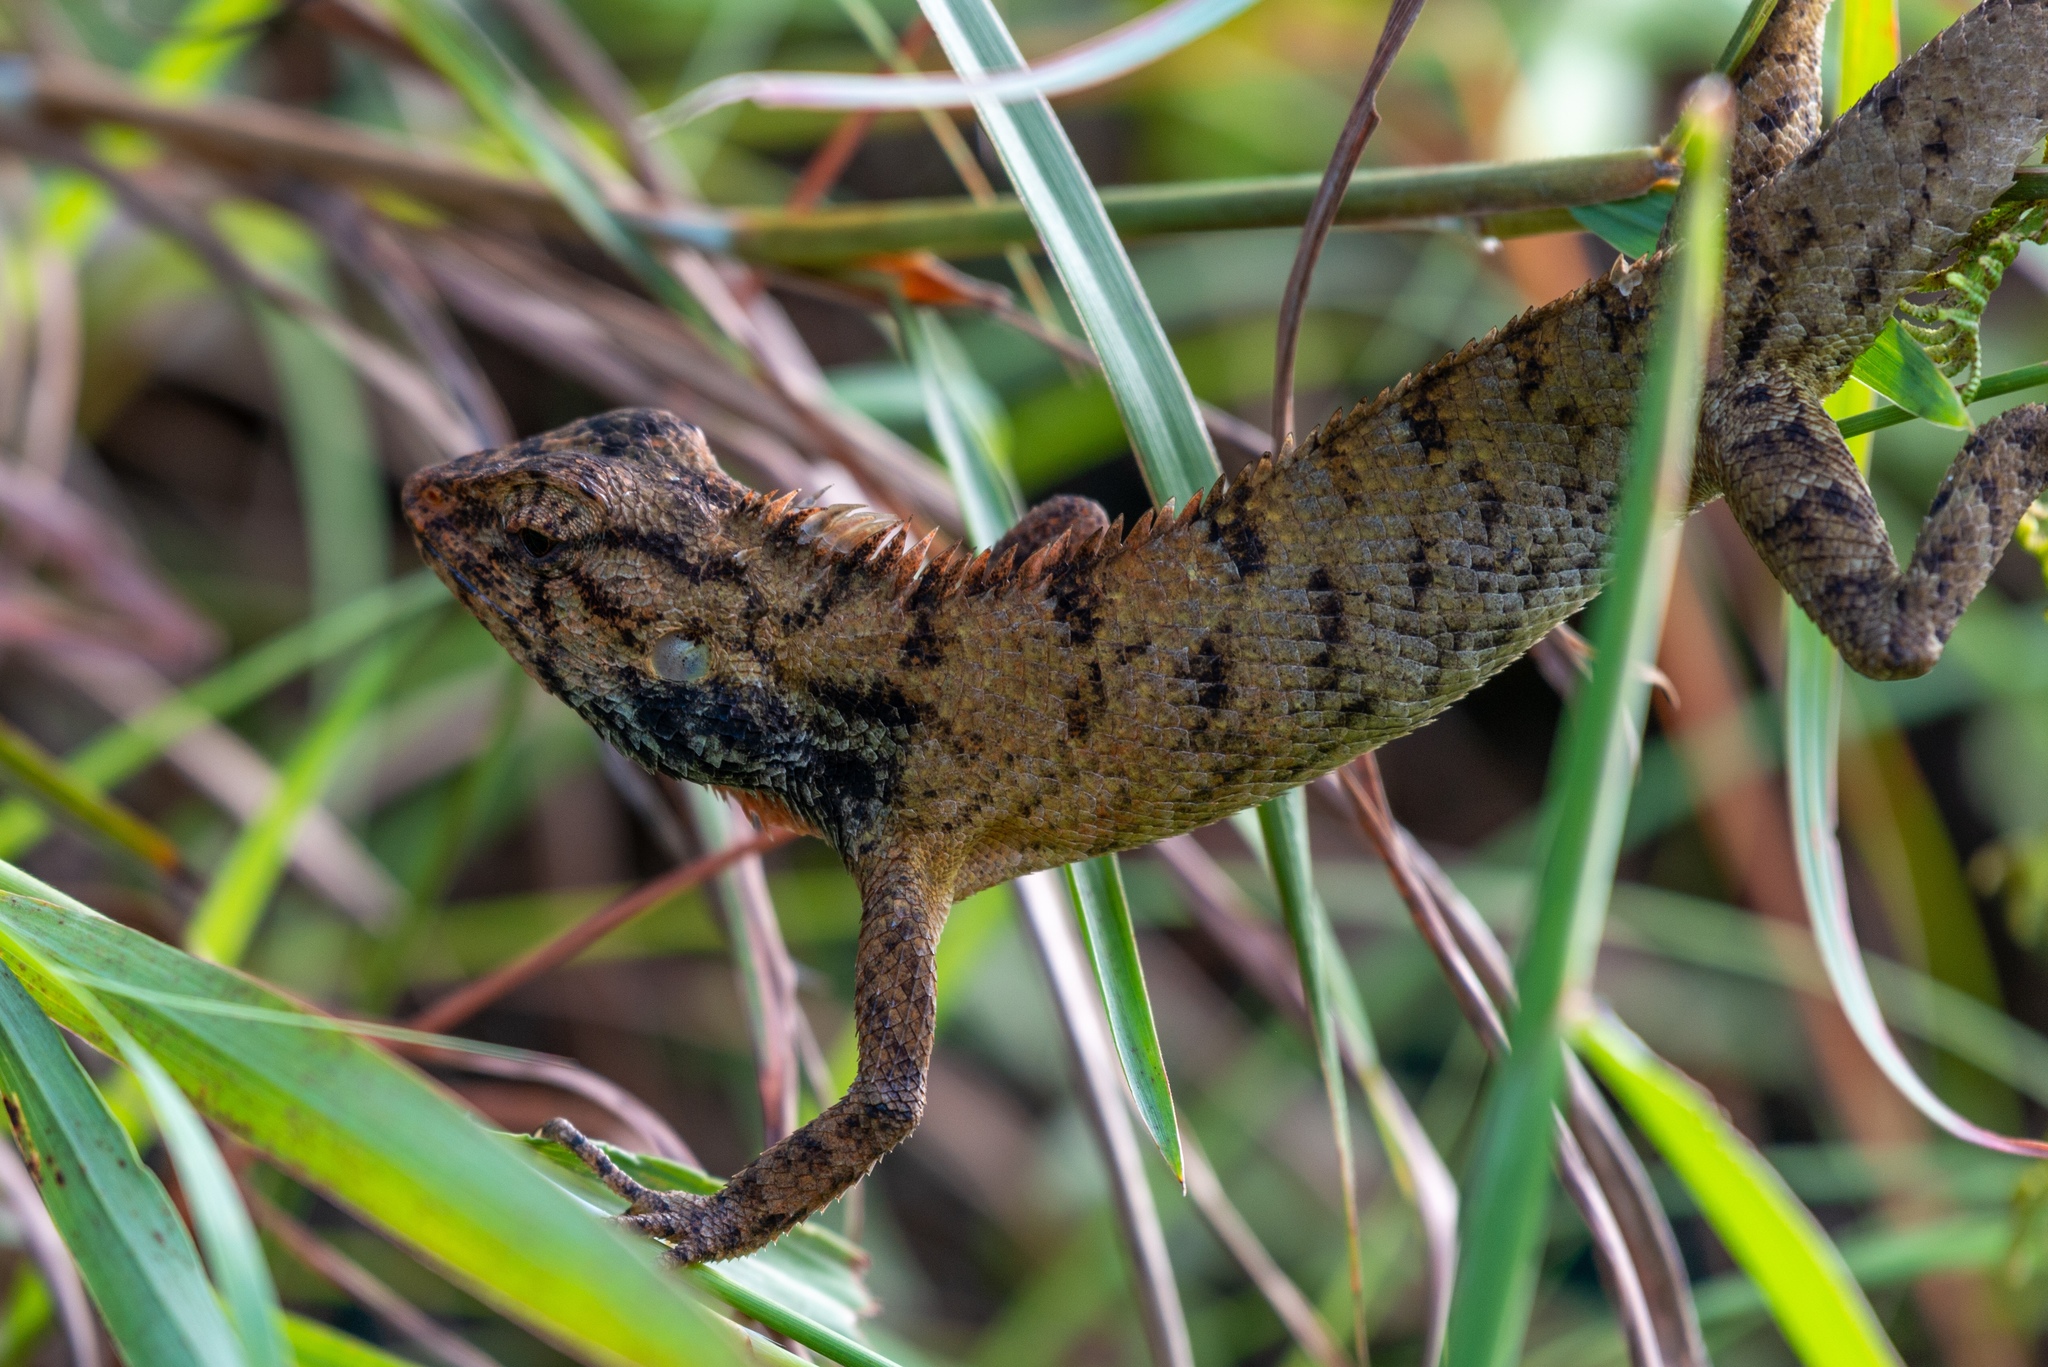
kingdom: Animalia
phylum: Chordata
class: Squamata
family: Agamidae
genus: Calotes
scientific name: Calotes versicolor
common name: Oriental garden lizard
